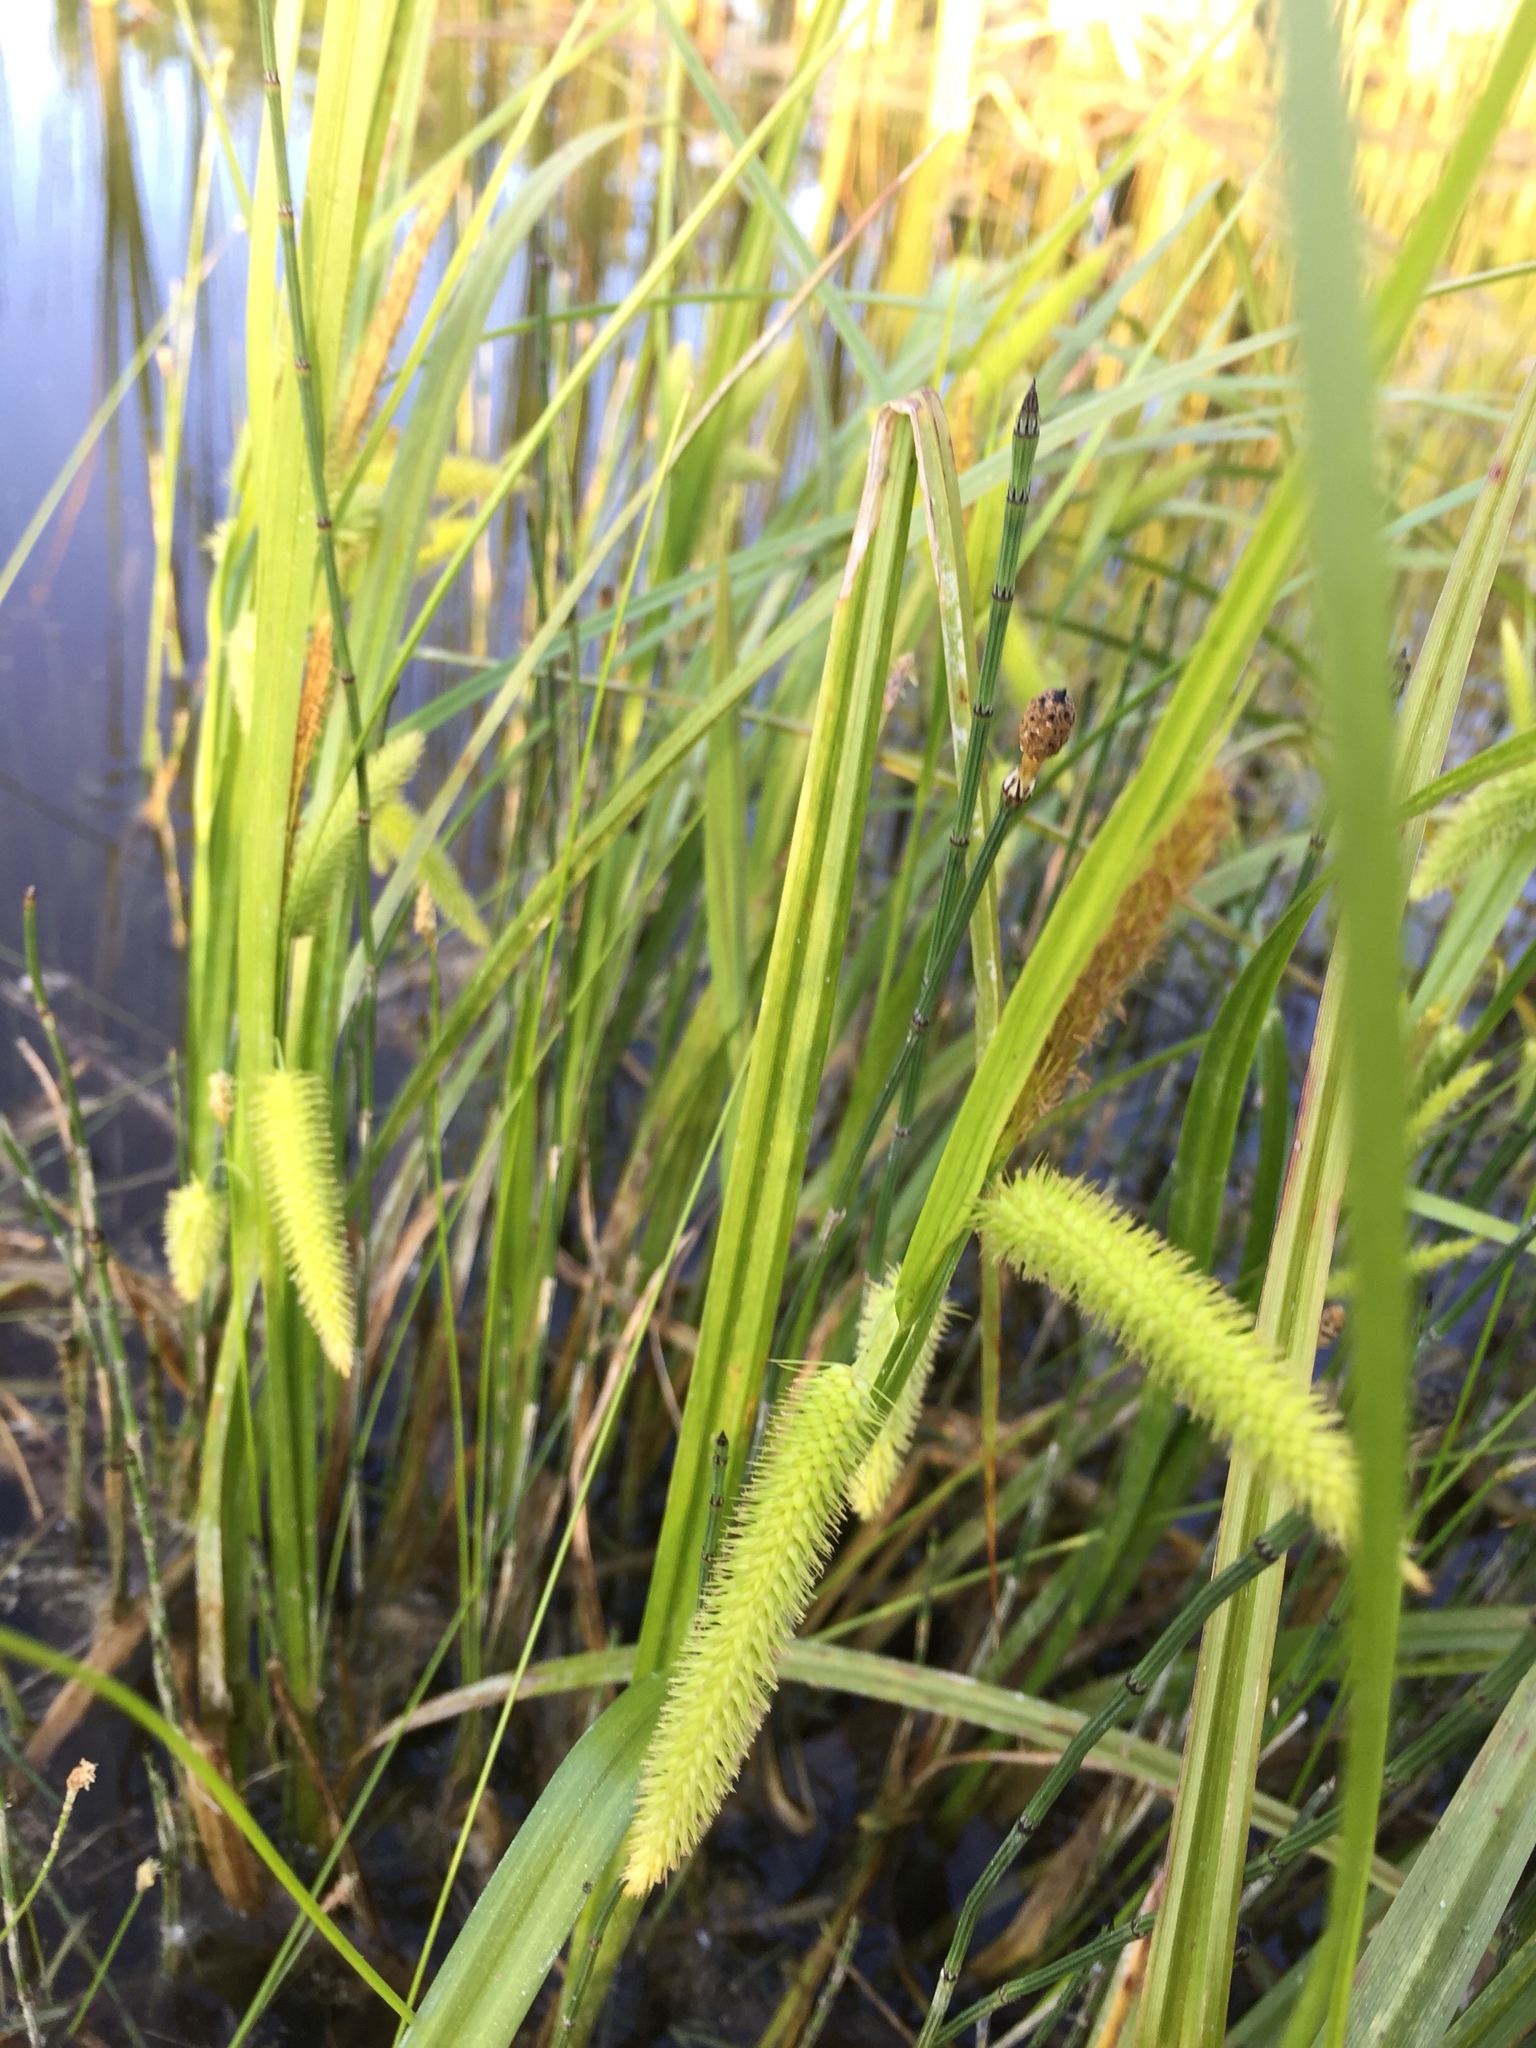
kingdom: Plantae
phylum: Tracheophyta
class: Liliopsida
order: Poales
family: Cyperaceae
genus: Carex
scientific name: Carex pseudocyperus
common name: Cyperus sedge
